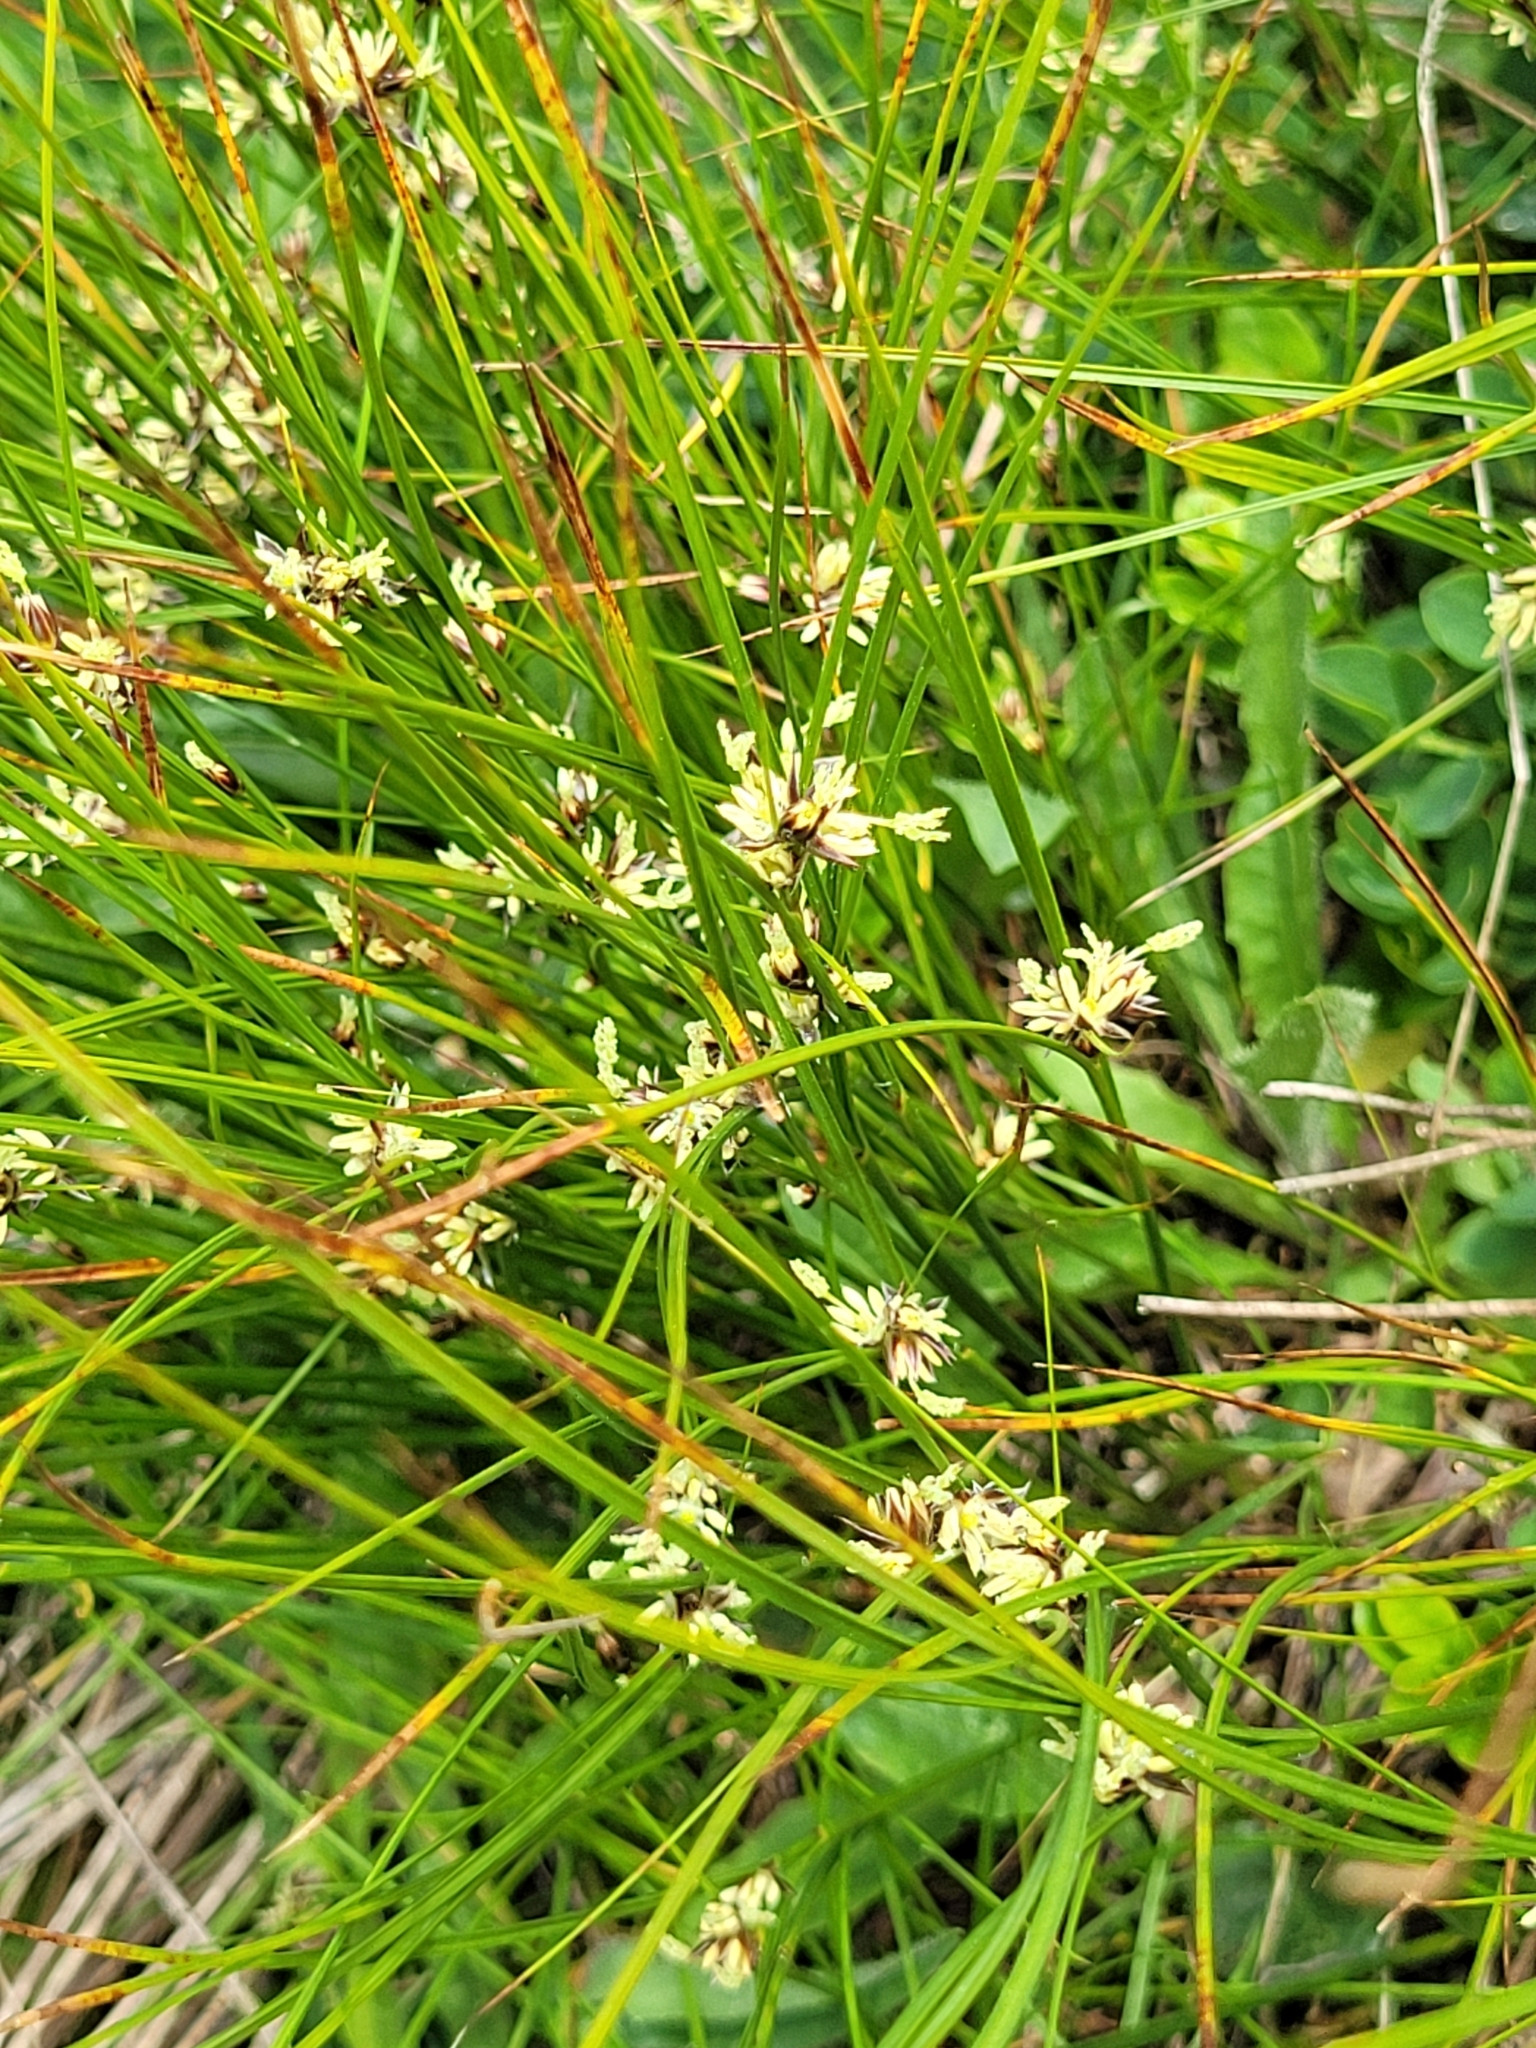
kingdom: Plantae
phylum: Tracheophyta
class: Liliopsida
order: Poales
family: Juncaceae
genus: Oreojuncus
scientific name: Oreojuncus trifidus
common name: Highland rush
